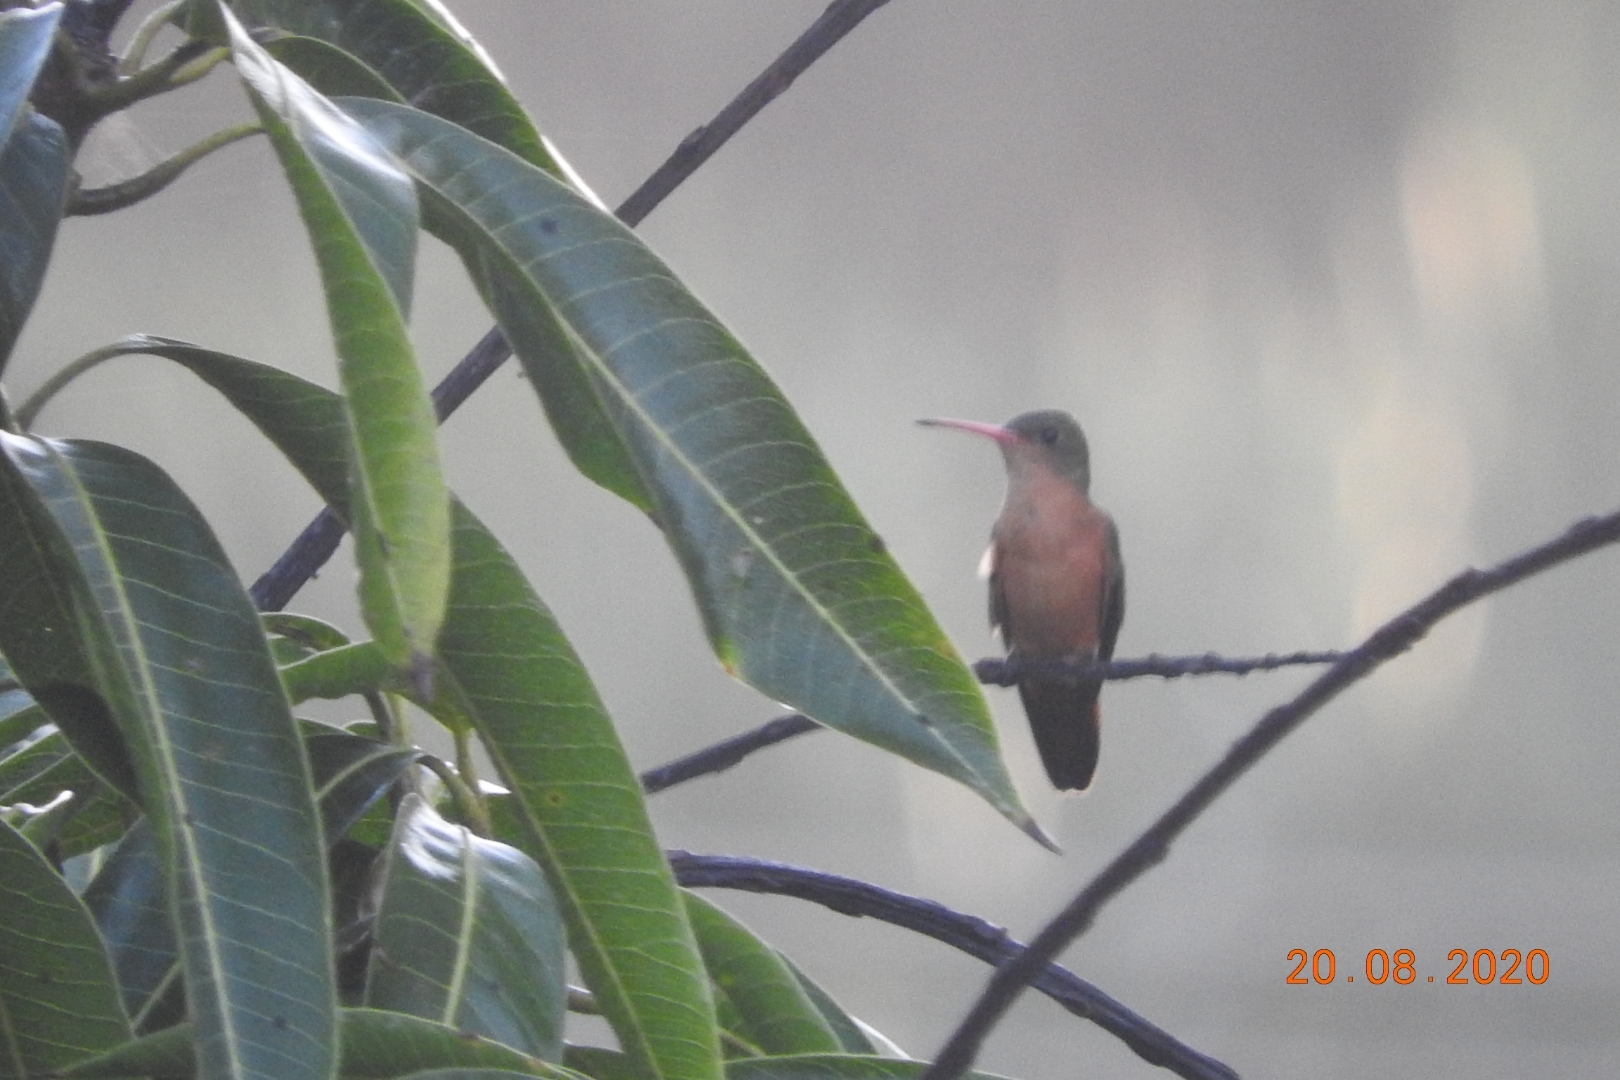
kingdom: Animalia
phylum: Chordata
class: Aves
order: Apodiformes
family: Trochilidae
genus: Amazilia
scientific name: Amazilia rutila
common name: Cinnamon hummingbird
